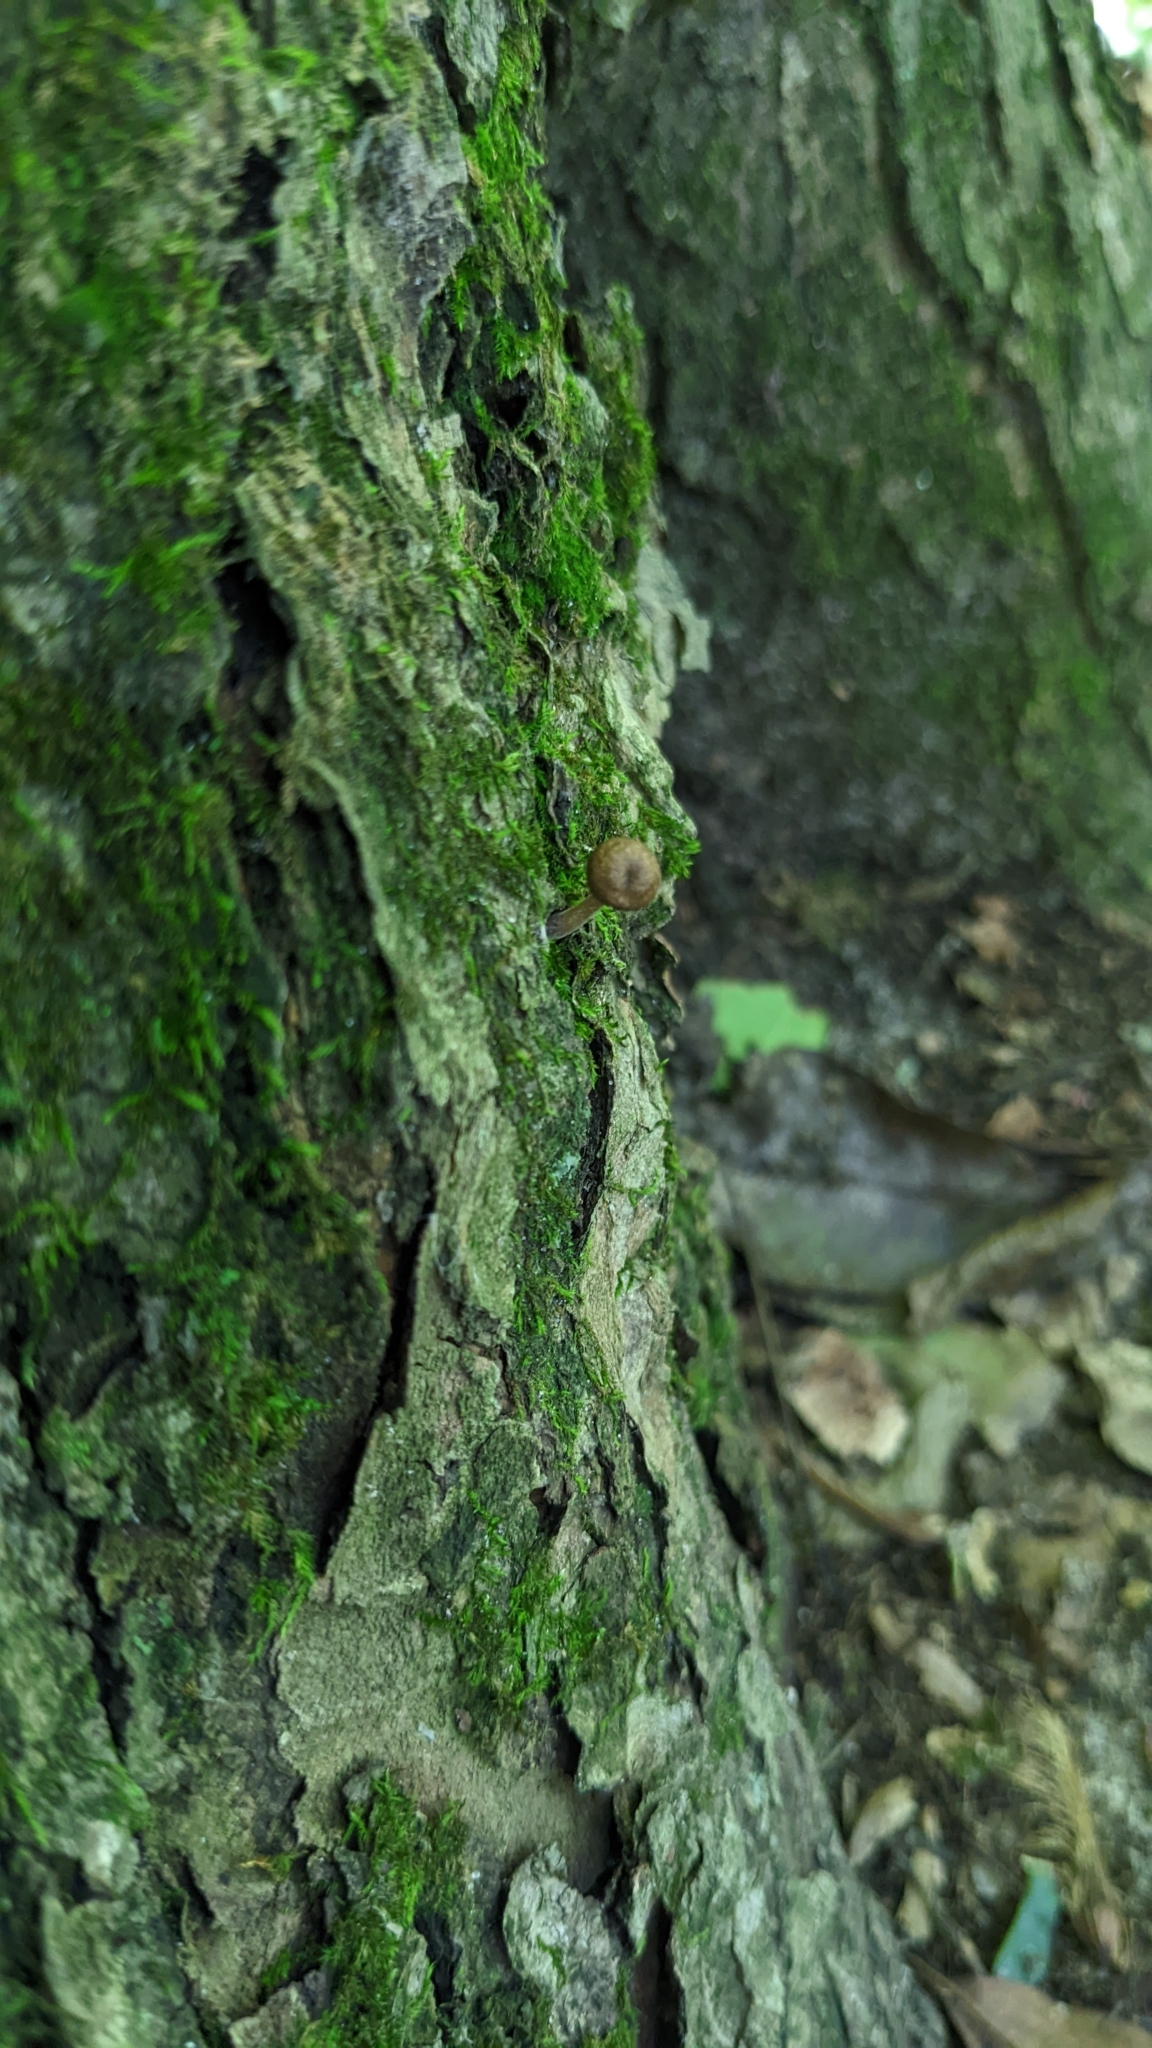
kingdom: Fungi
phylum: Basidiomycota
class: Agaricomycetes
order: Agaricales
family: Omphalotaceae
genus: Collybiopsis
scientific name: Collybiopsis dichroa
